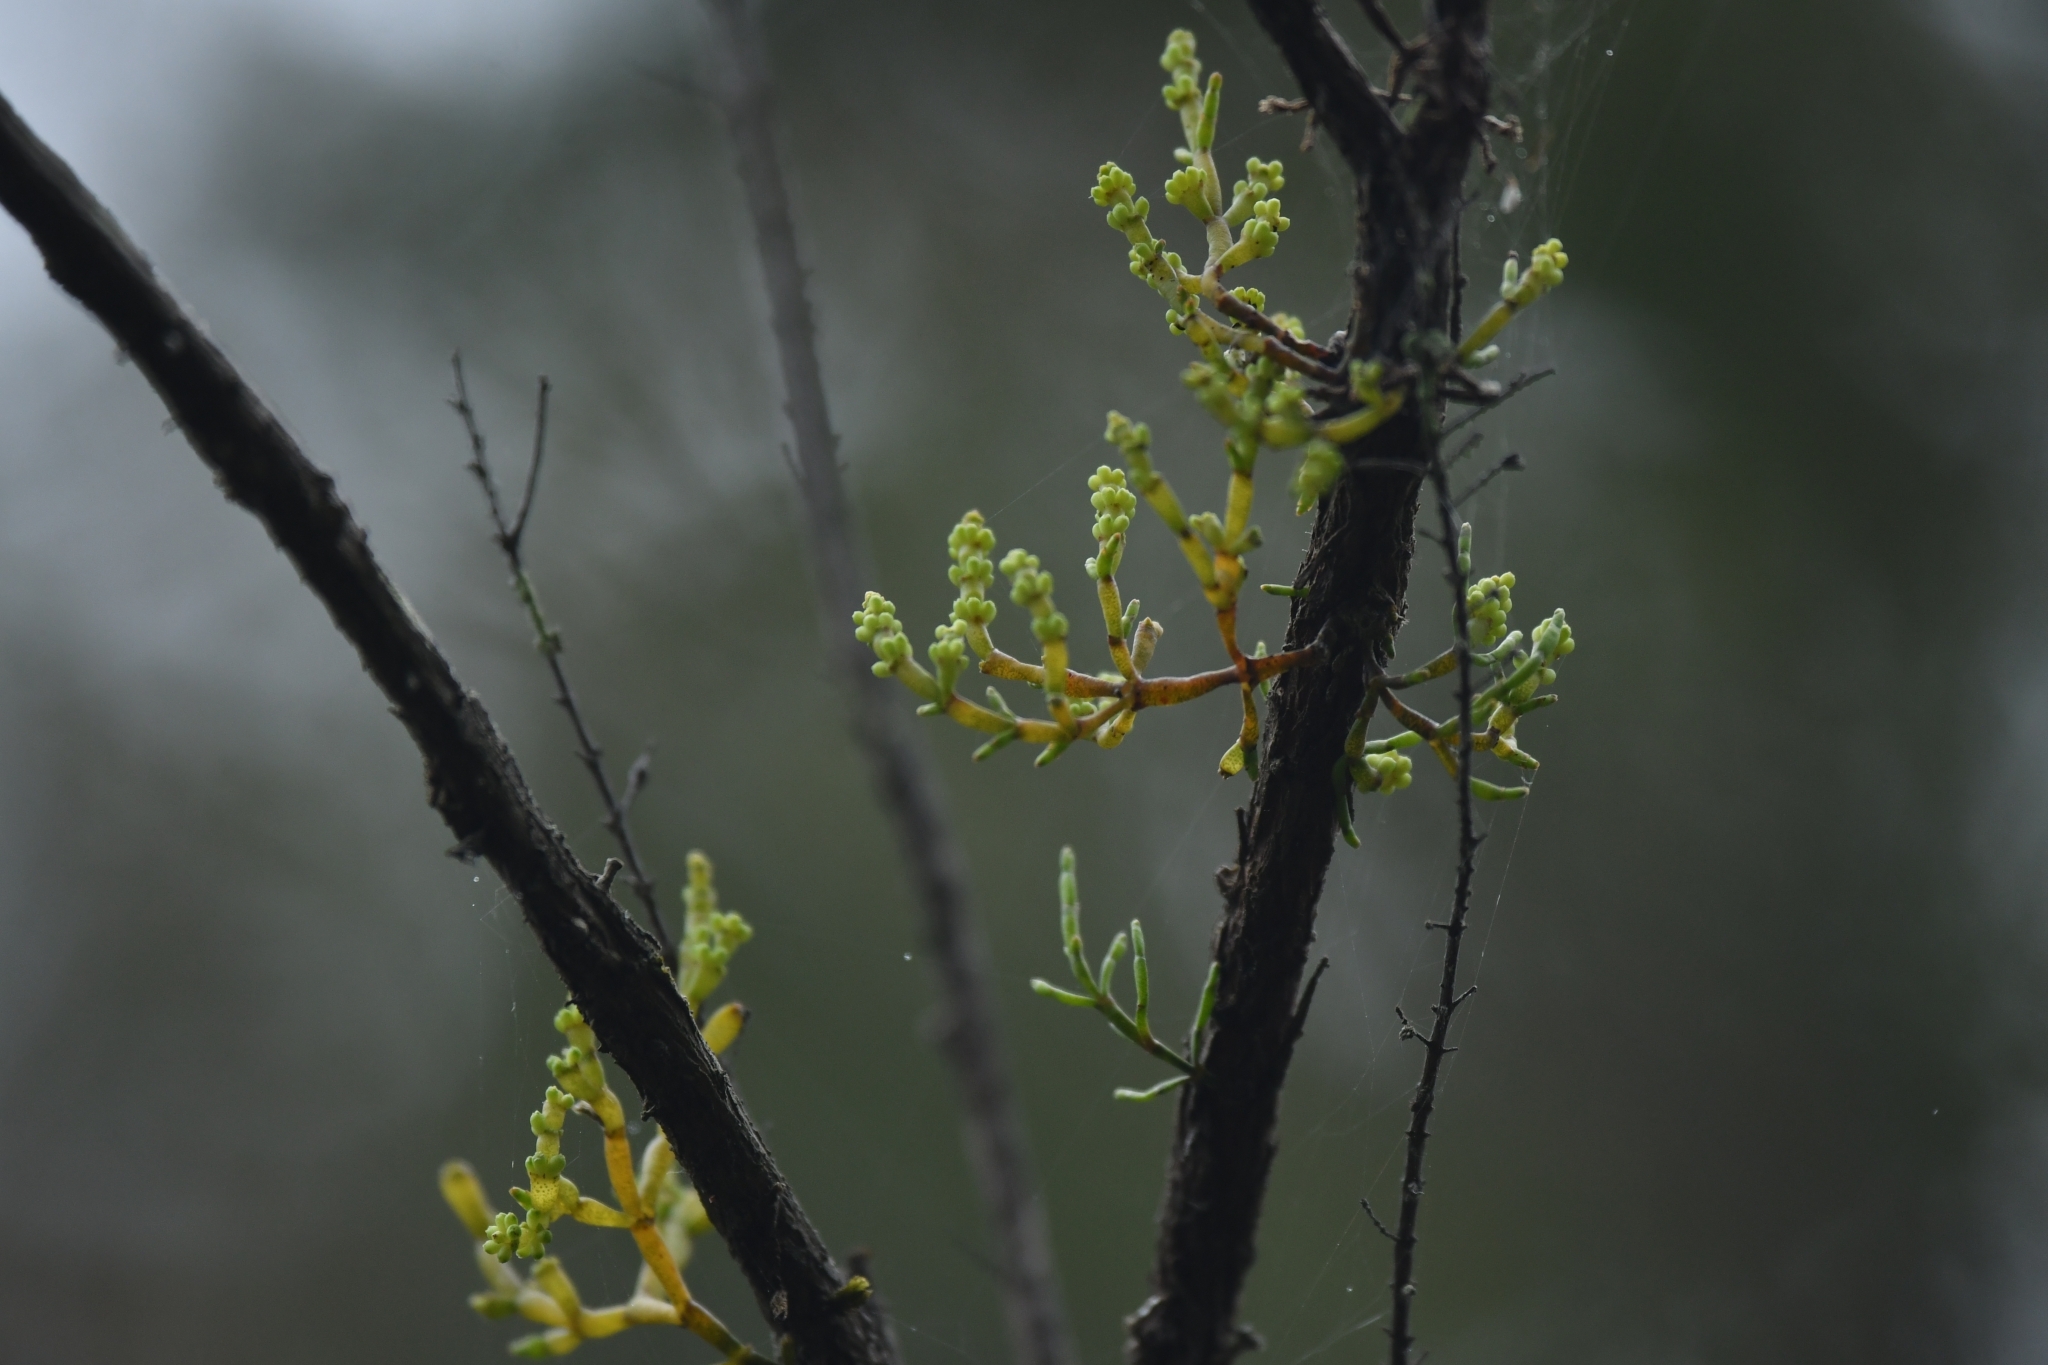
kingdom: Plantae
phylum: Tracheophyta
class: Magnoliopsida
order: Santalales
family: Viscaceae
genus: Korthalsella
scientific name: Korthalsella salicornioides
